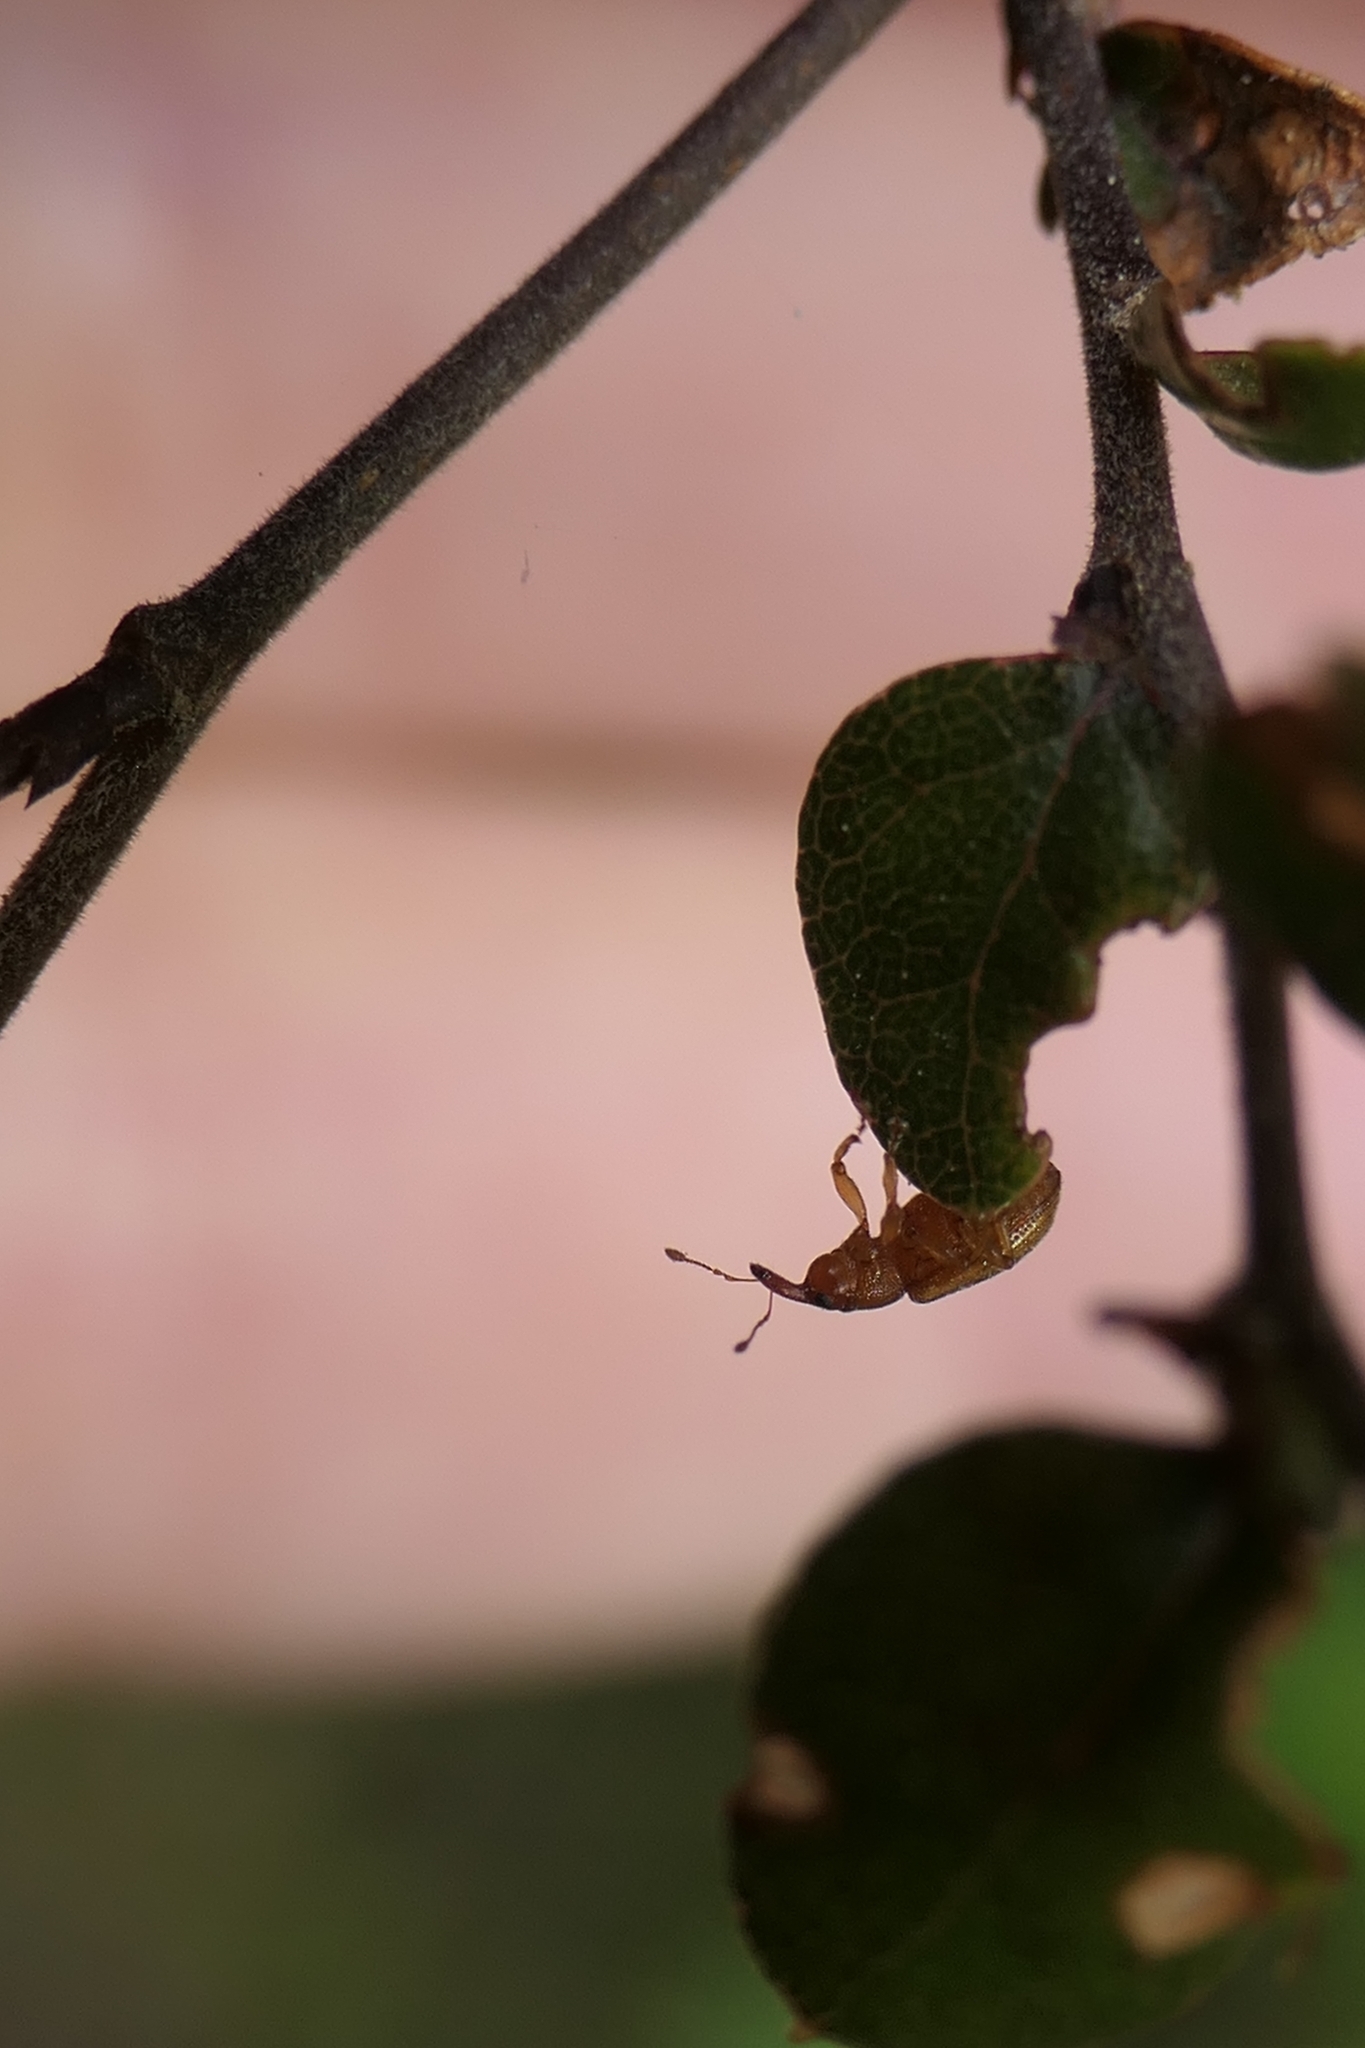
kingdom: Animalia
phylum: Arthropoda
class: Insecta
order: Coleoptera
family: Curculionidae
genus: Neomycta
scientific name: Neomycta pulicaris
